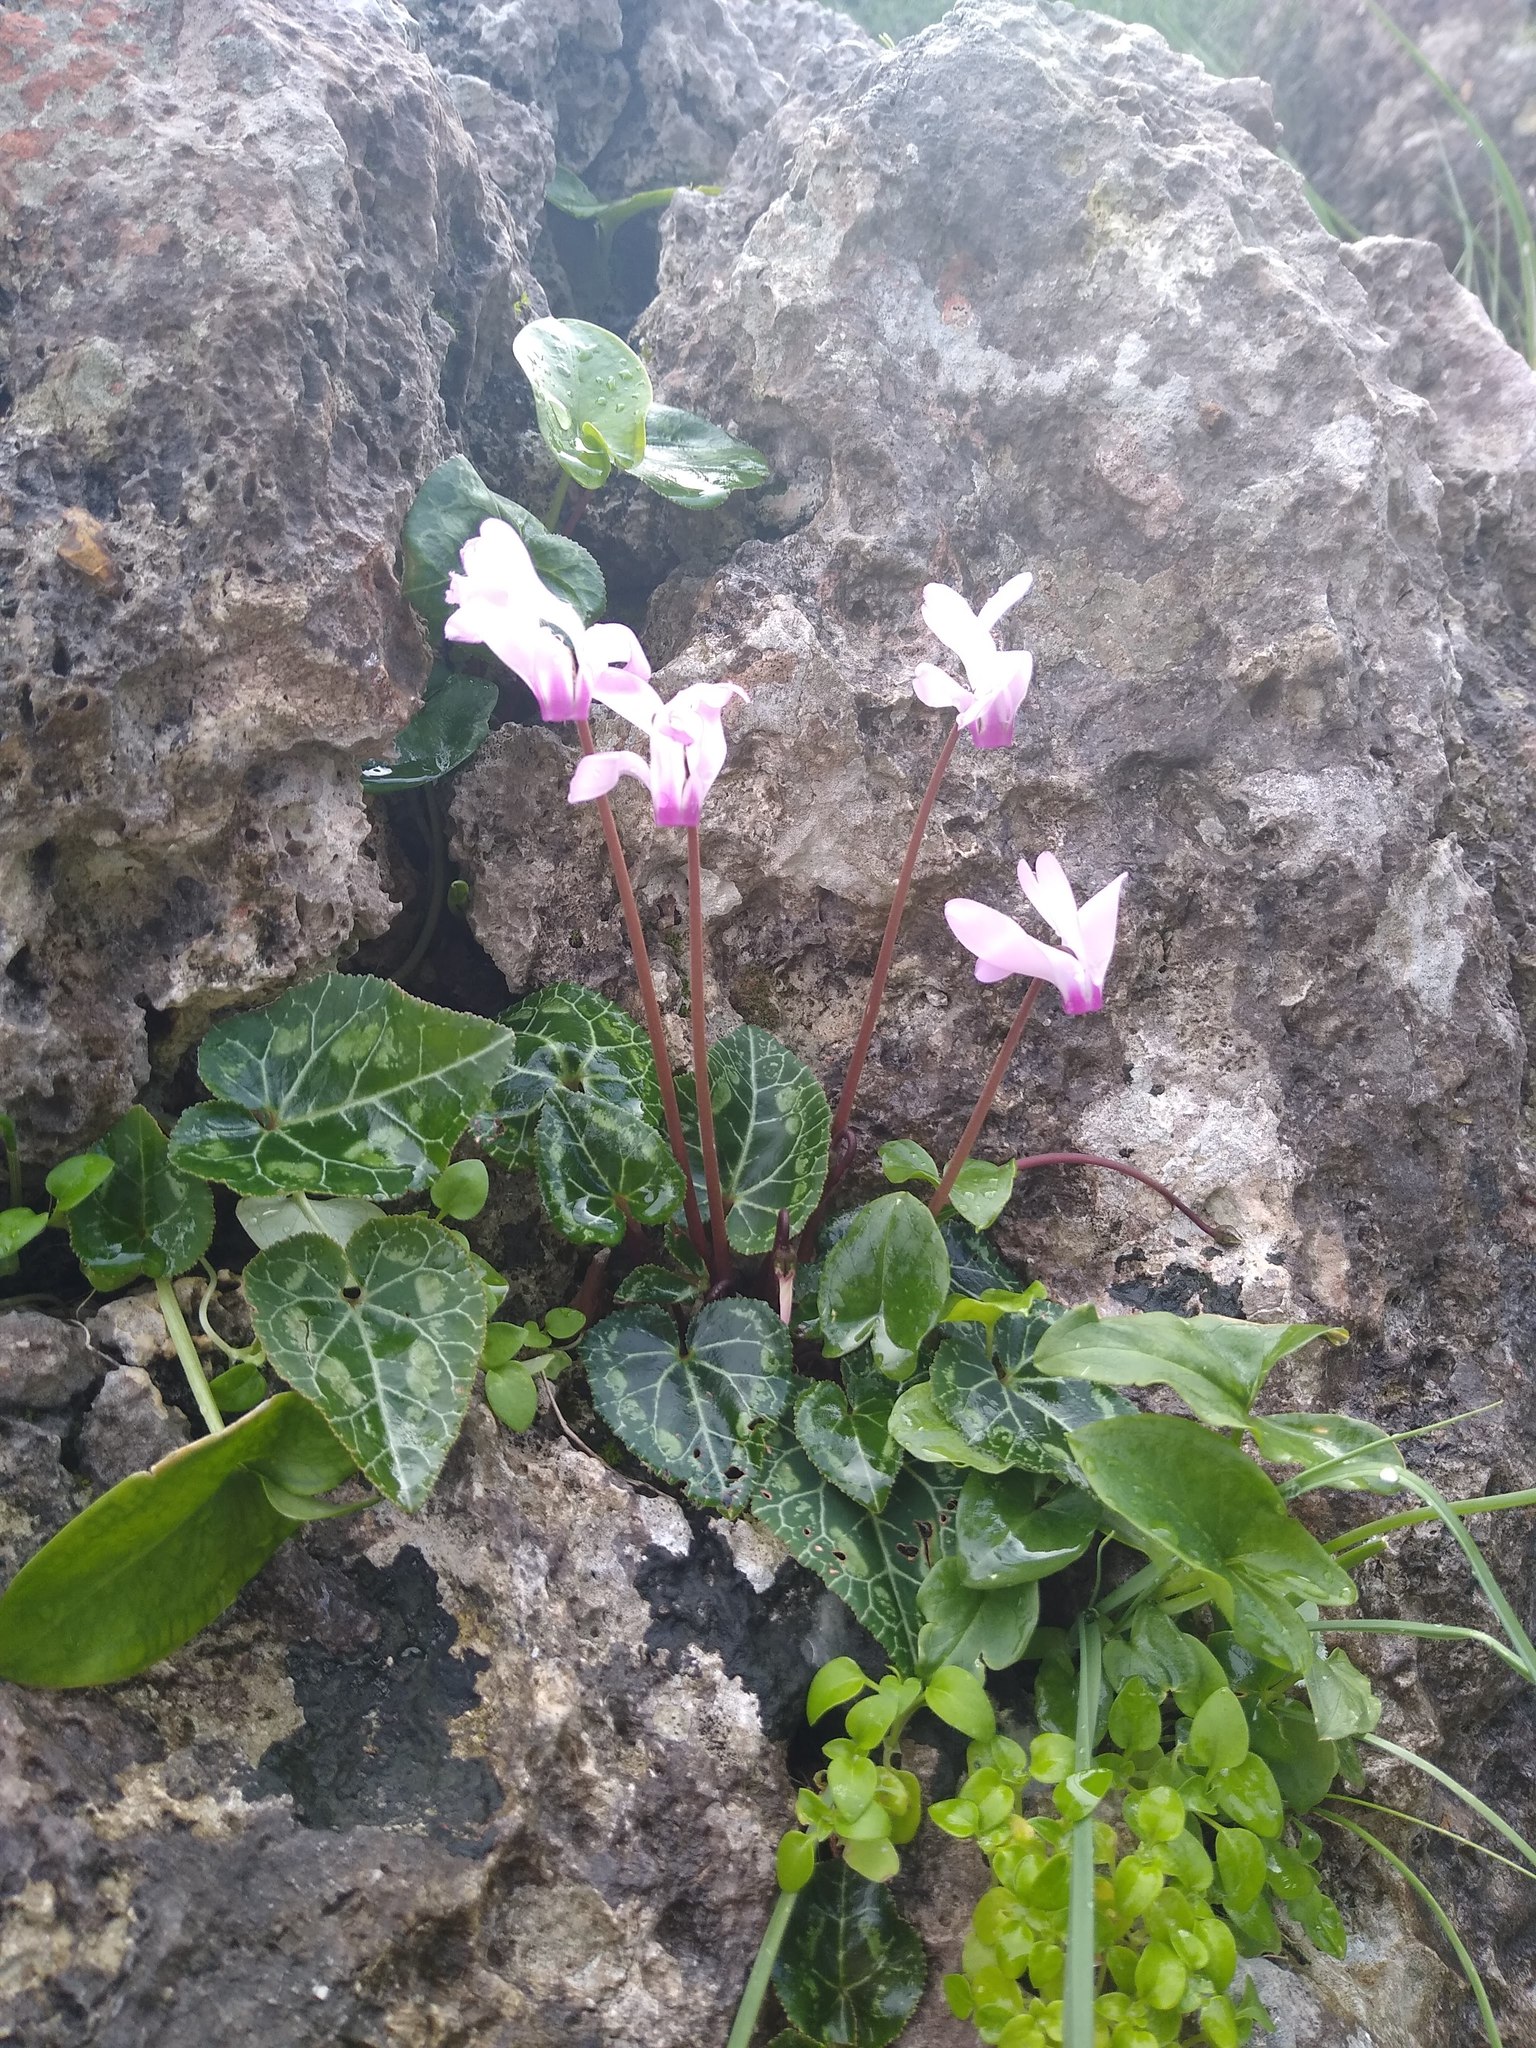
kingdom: Plantae
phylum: Tracheophyta
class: Magnoliopsida
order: Ericales
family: Primulaceae
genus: Cyclamen
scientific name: Cyclamen persicum
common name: Florist's cyclamen
